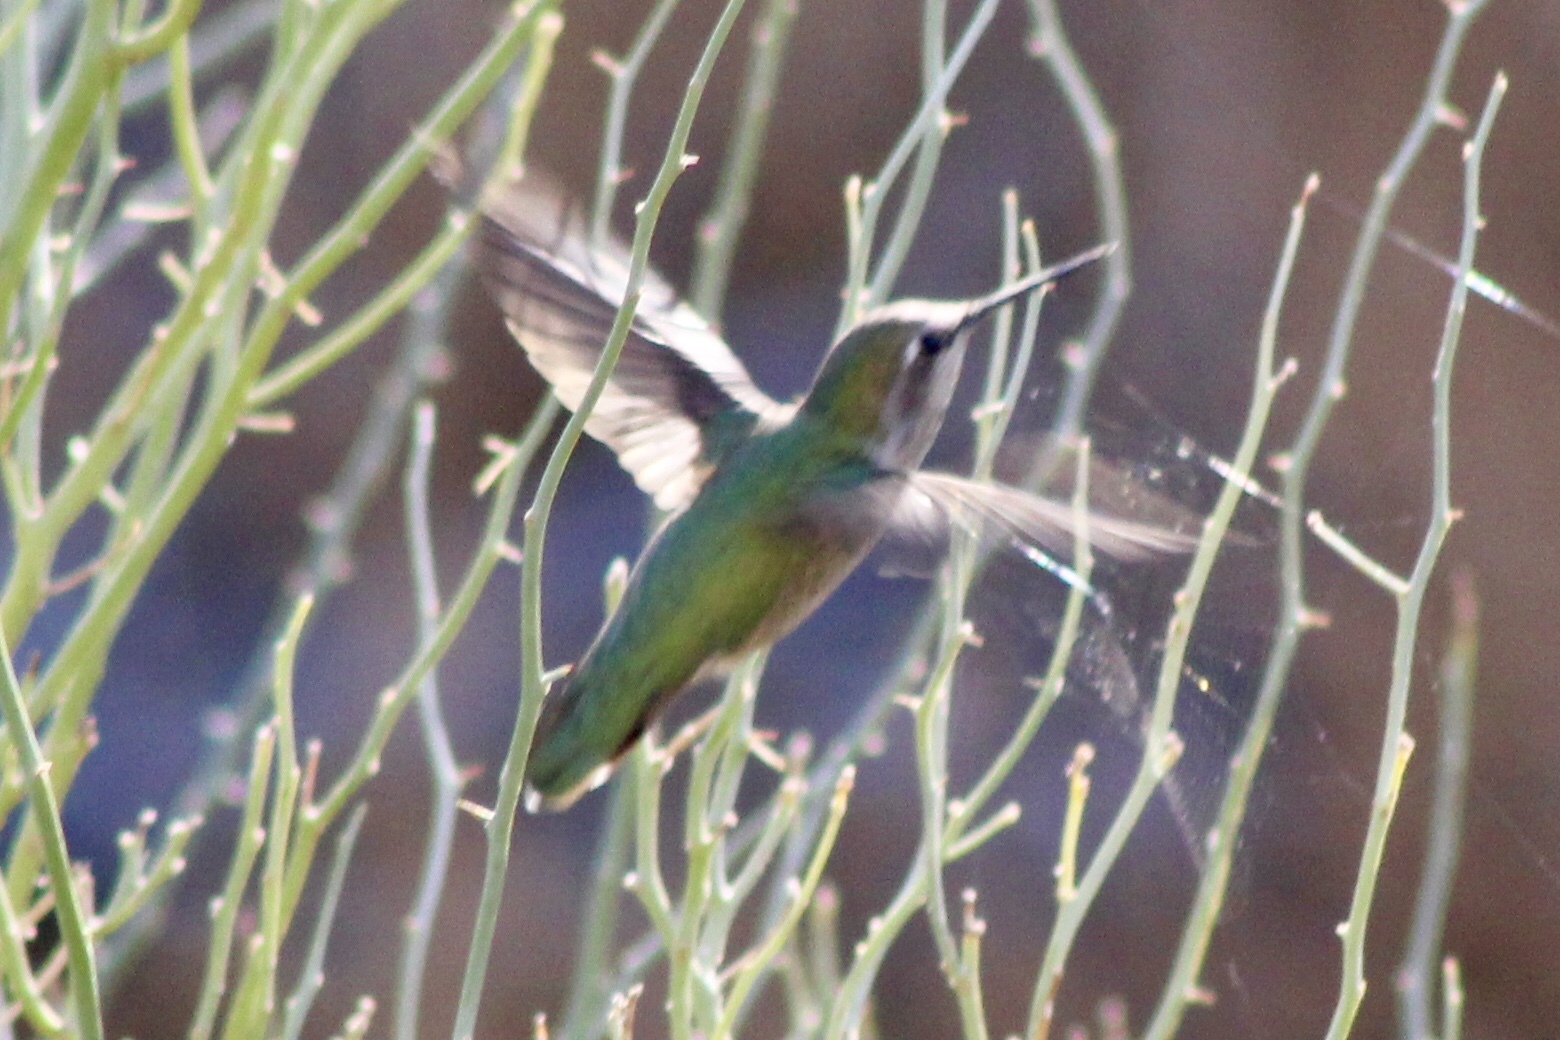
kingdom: Animalia
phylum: Chordata
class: Aves
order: Apodiformes
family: Trochilidae
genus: Calypte
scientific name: Calypte anna
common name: Anna's hummingbird
